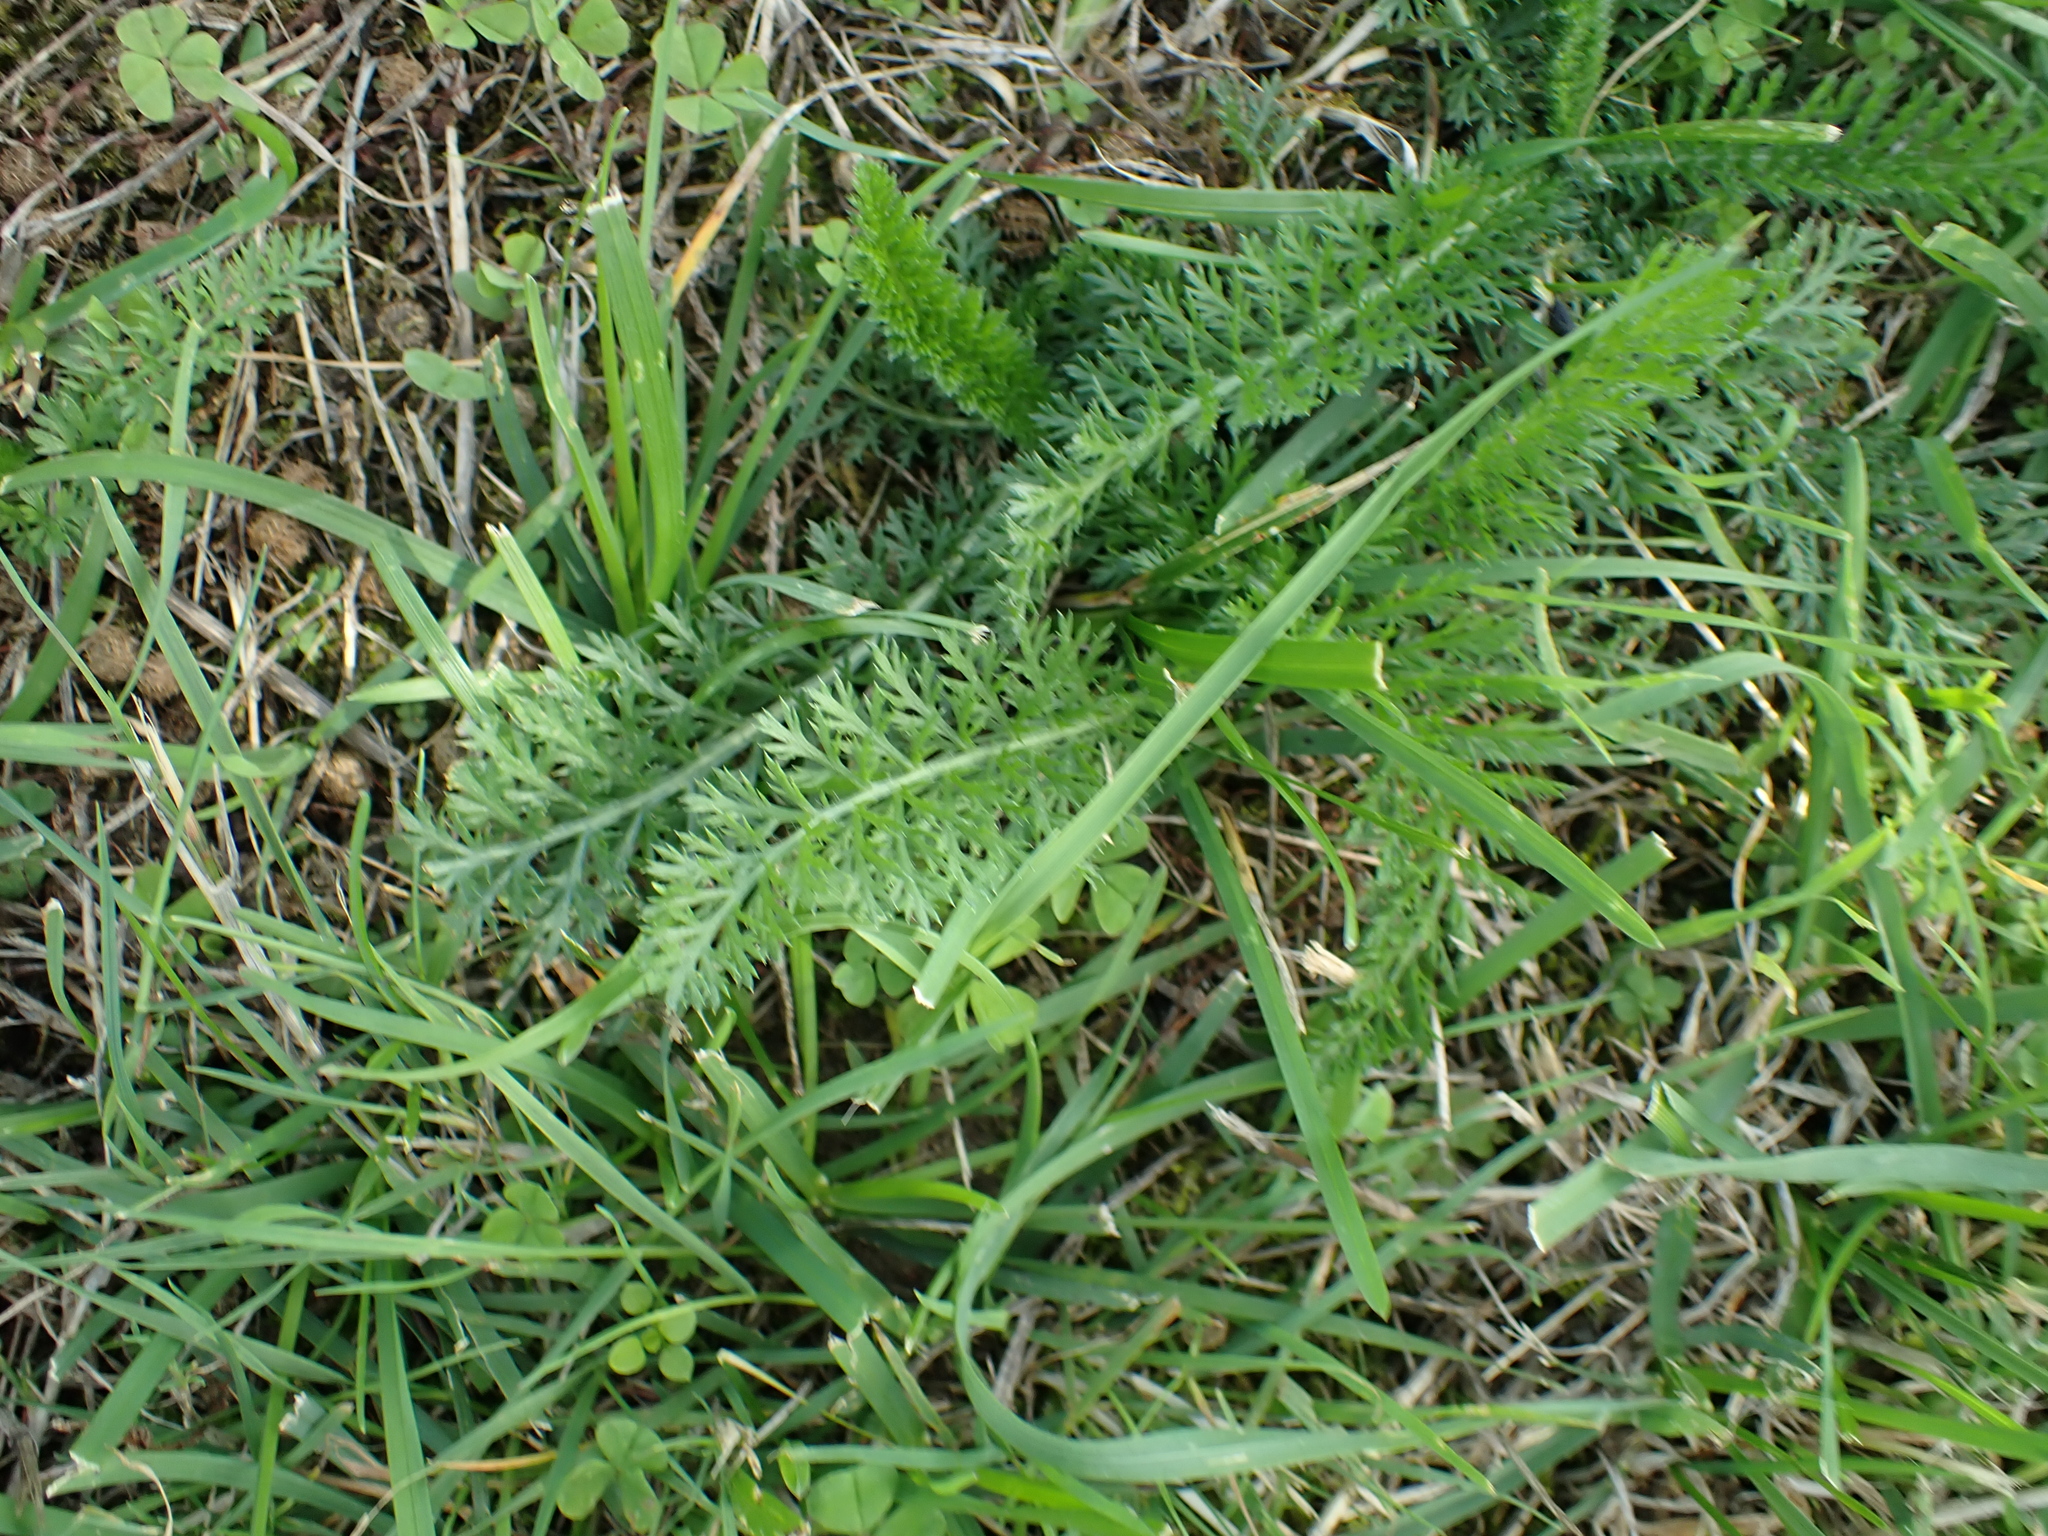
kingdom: Plantae
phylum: Tracheophyta
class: Magnoliopsida
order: Asterales
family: Asteraceae
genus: Achillea
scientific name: Achillea millefolium
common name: Yarrow
